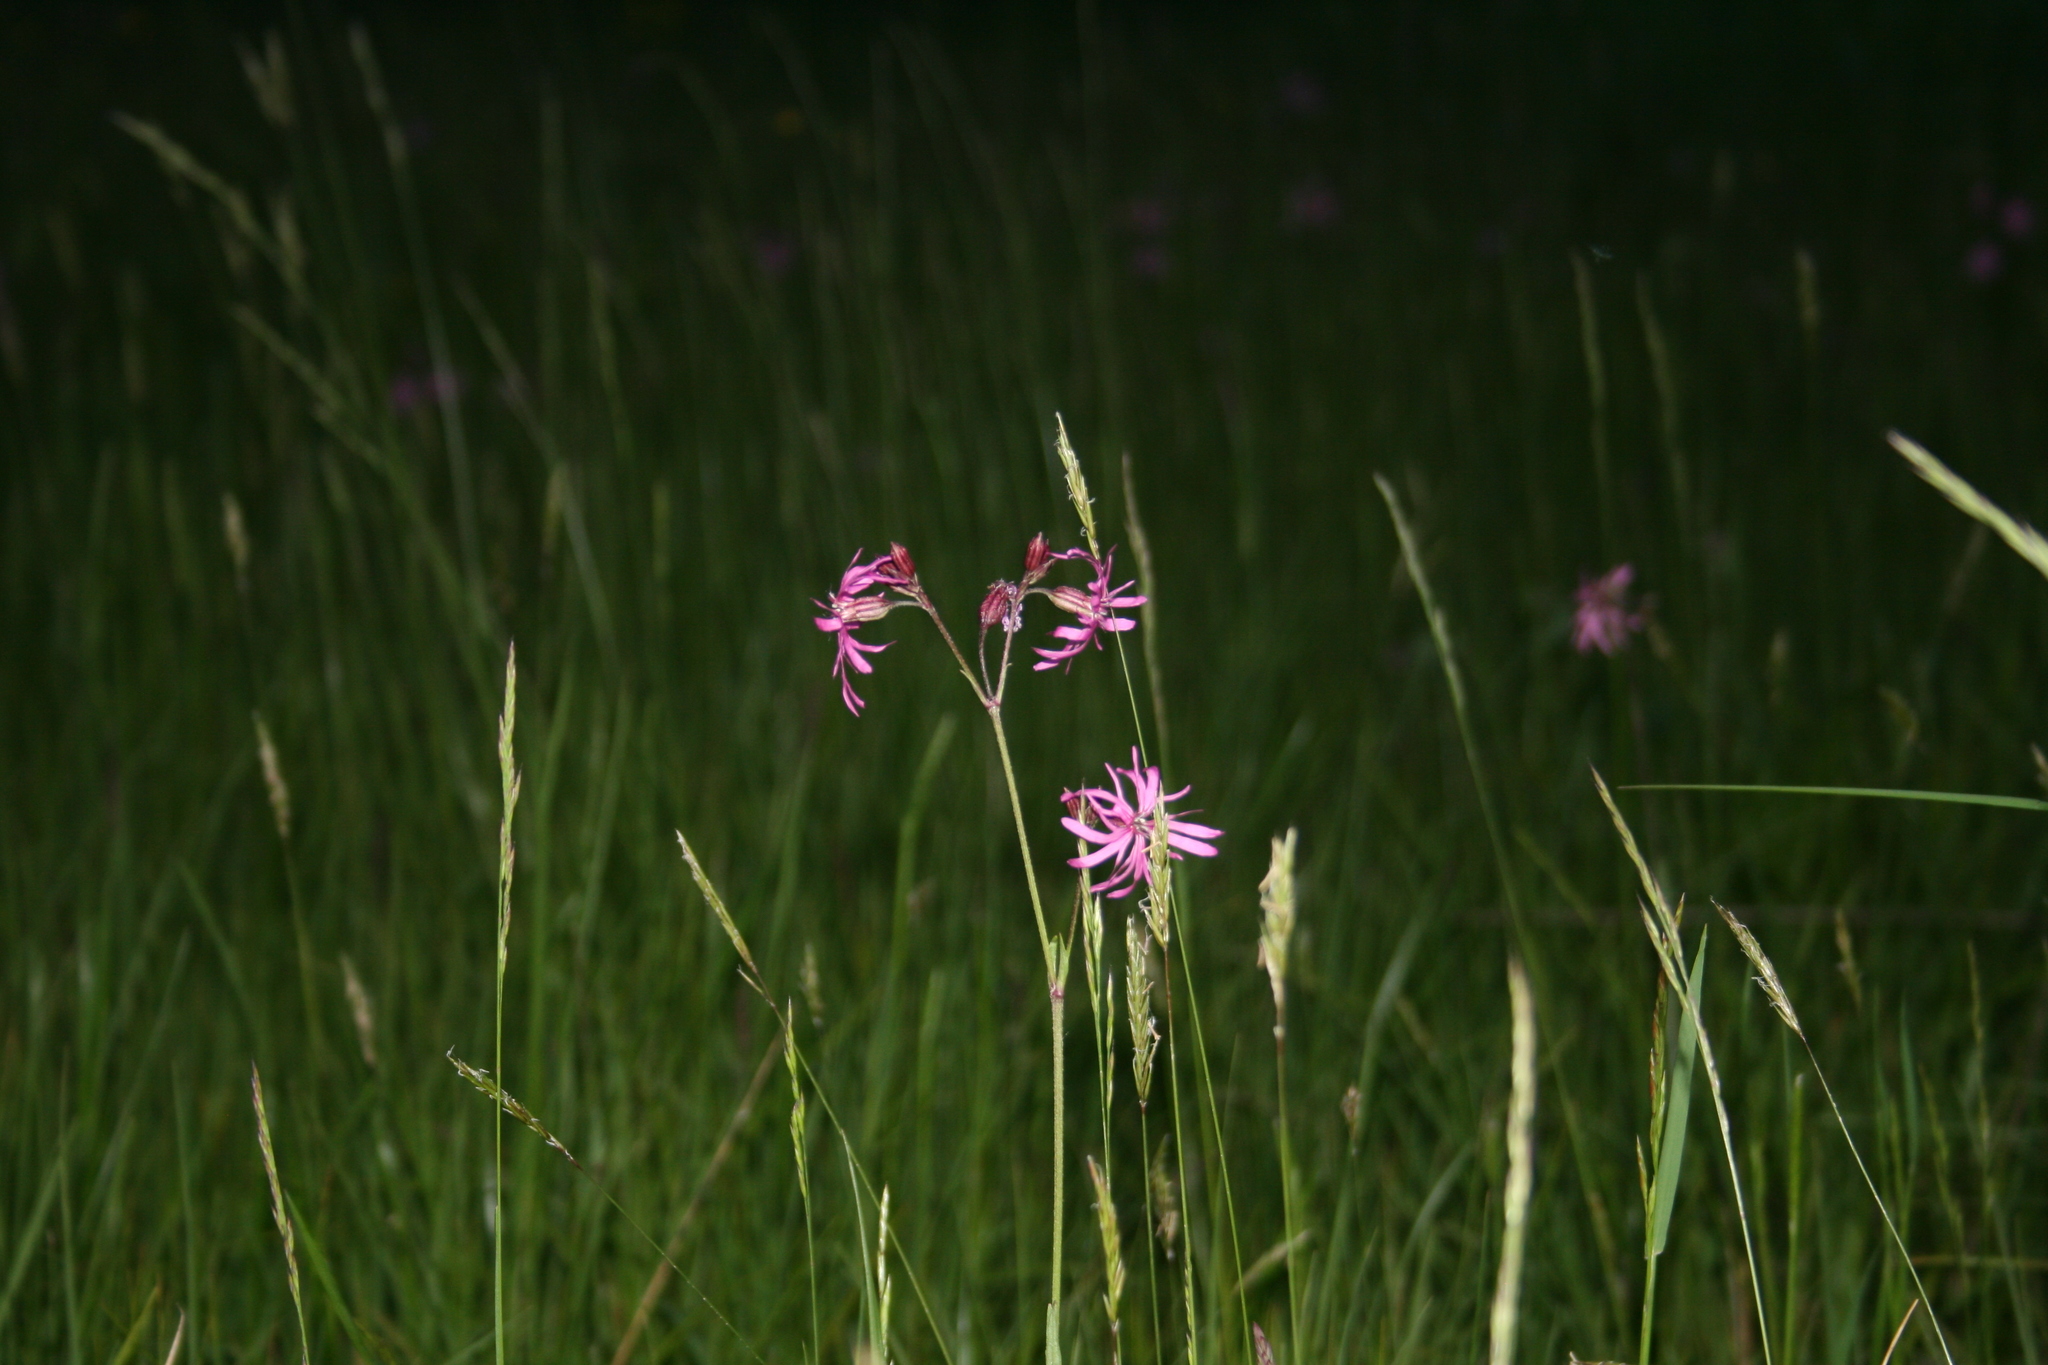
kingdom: Plantae
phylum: Tracheophyta
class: Magnoliopsida
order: Caryophyllales
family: Caryophyllaceae
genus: Silene
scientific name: Silene flos-cuculi
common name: Ragged-robin
